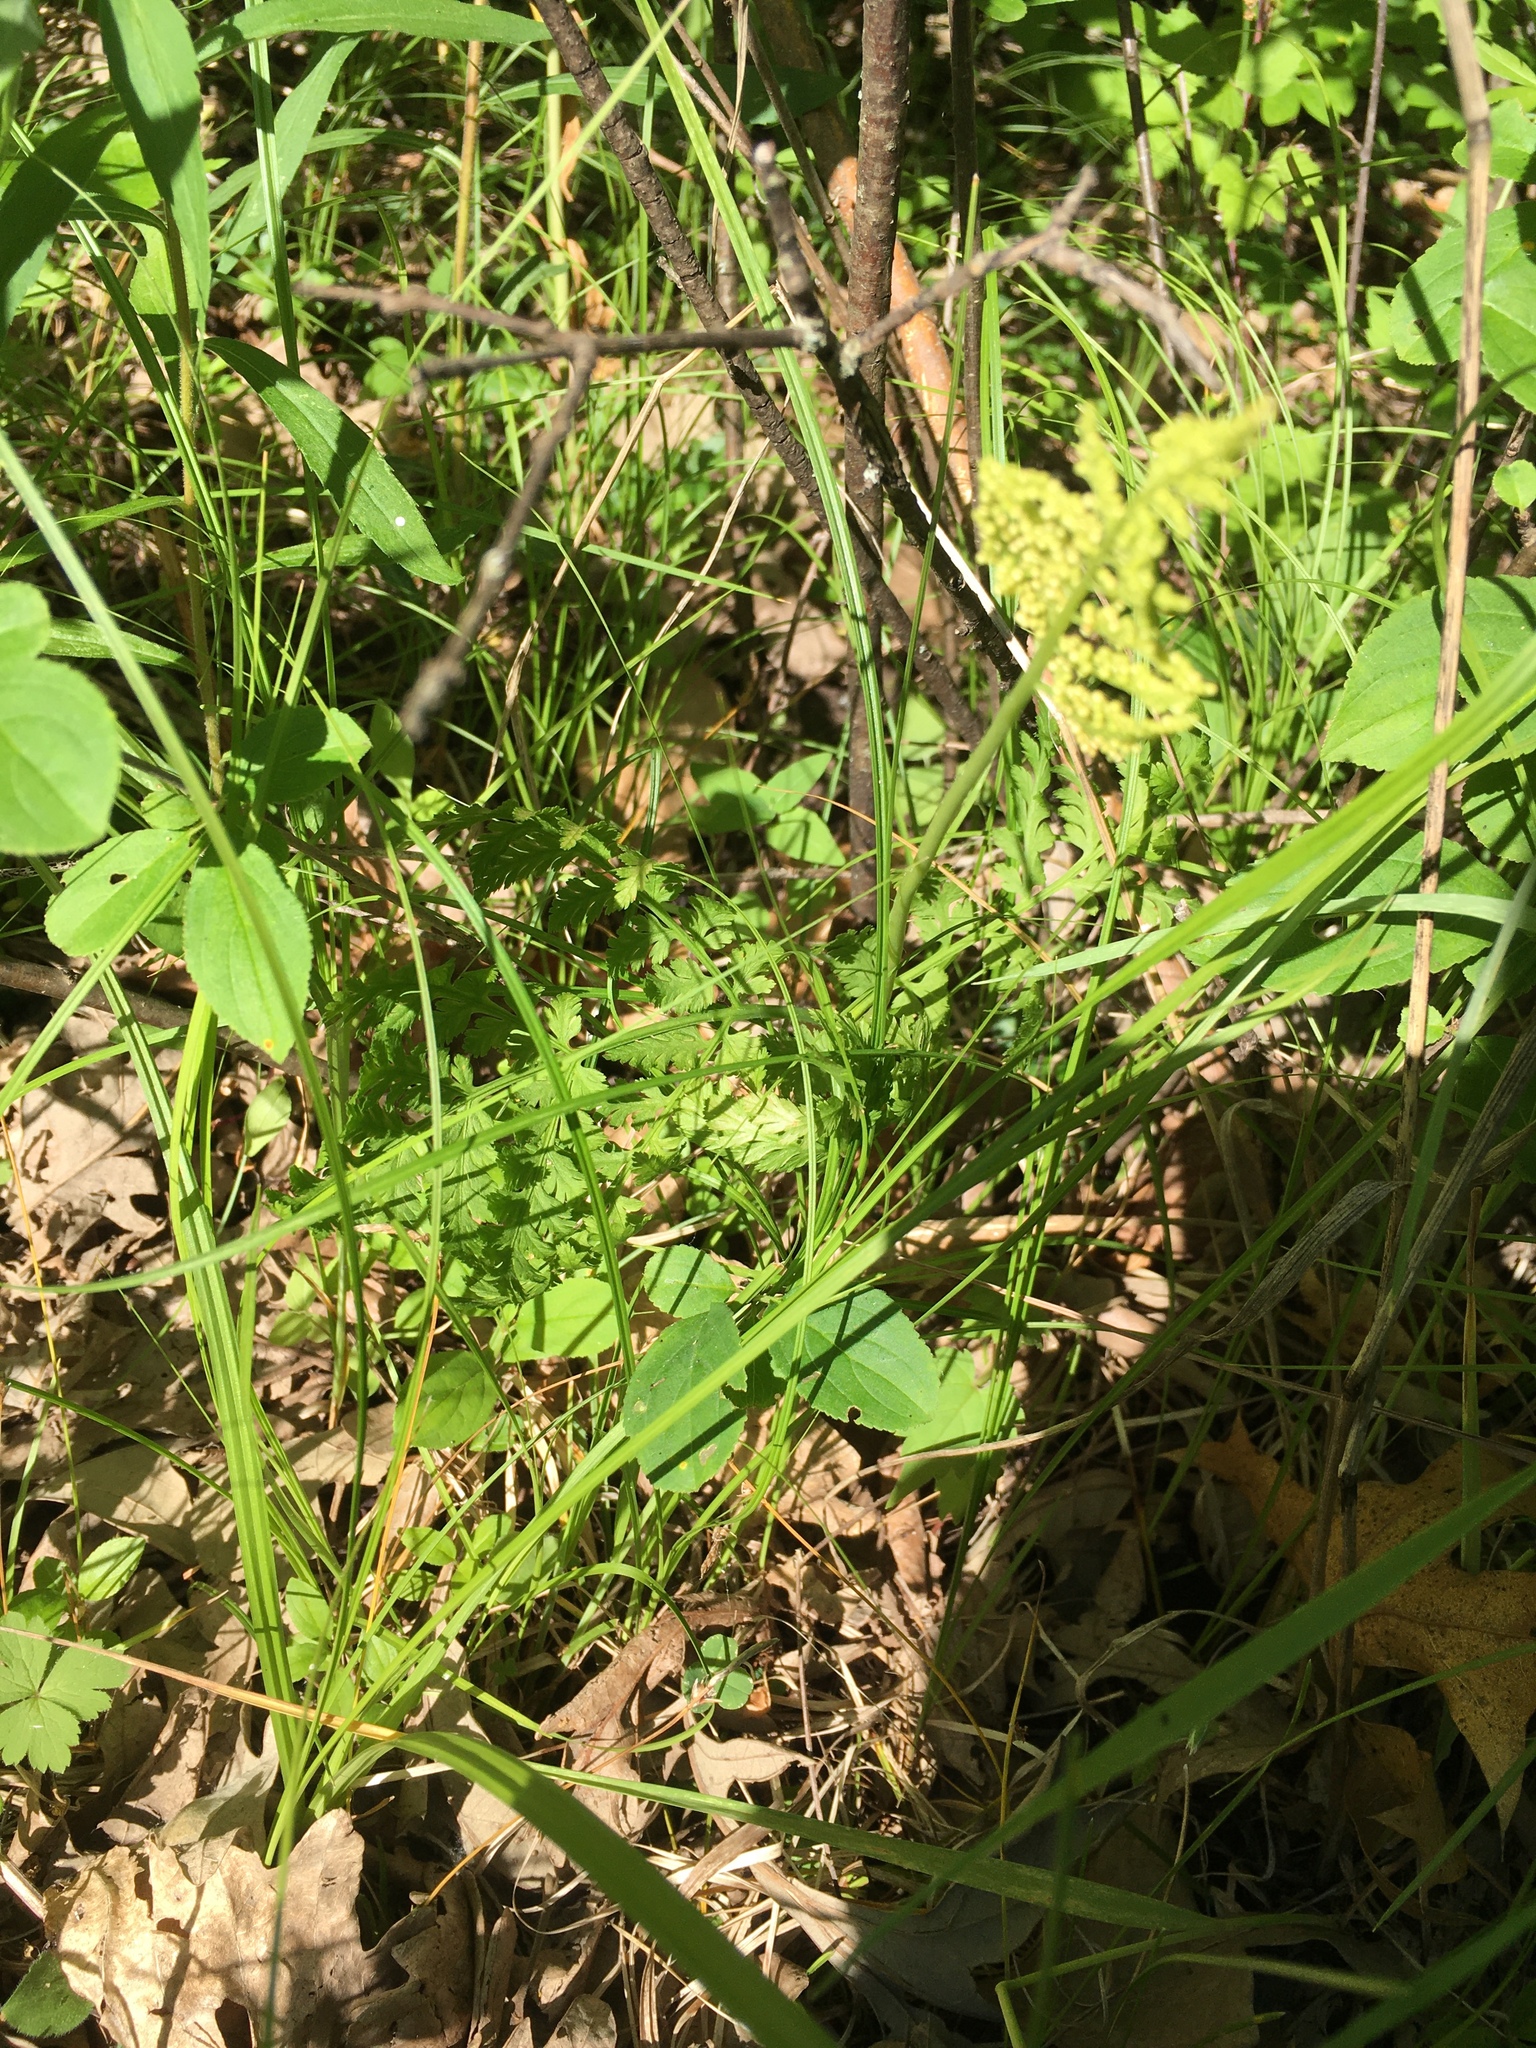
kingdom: Plantae
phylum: Tracheophyta
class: Polypodiopsida
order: Ophioglossales
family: Ophioglossaceae
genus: Botrypus
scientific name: Botrypus virginianus
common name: Common grapefern
